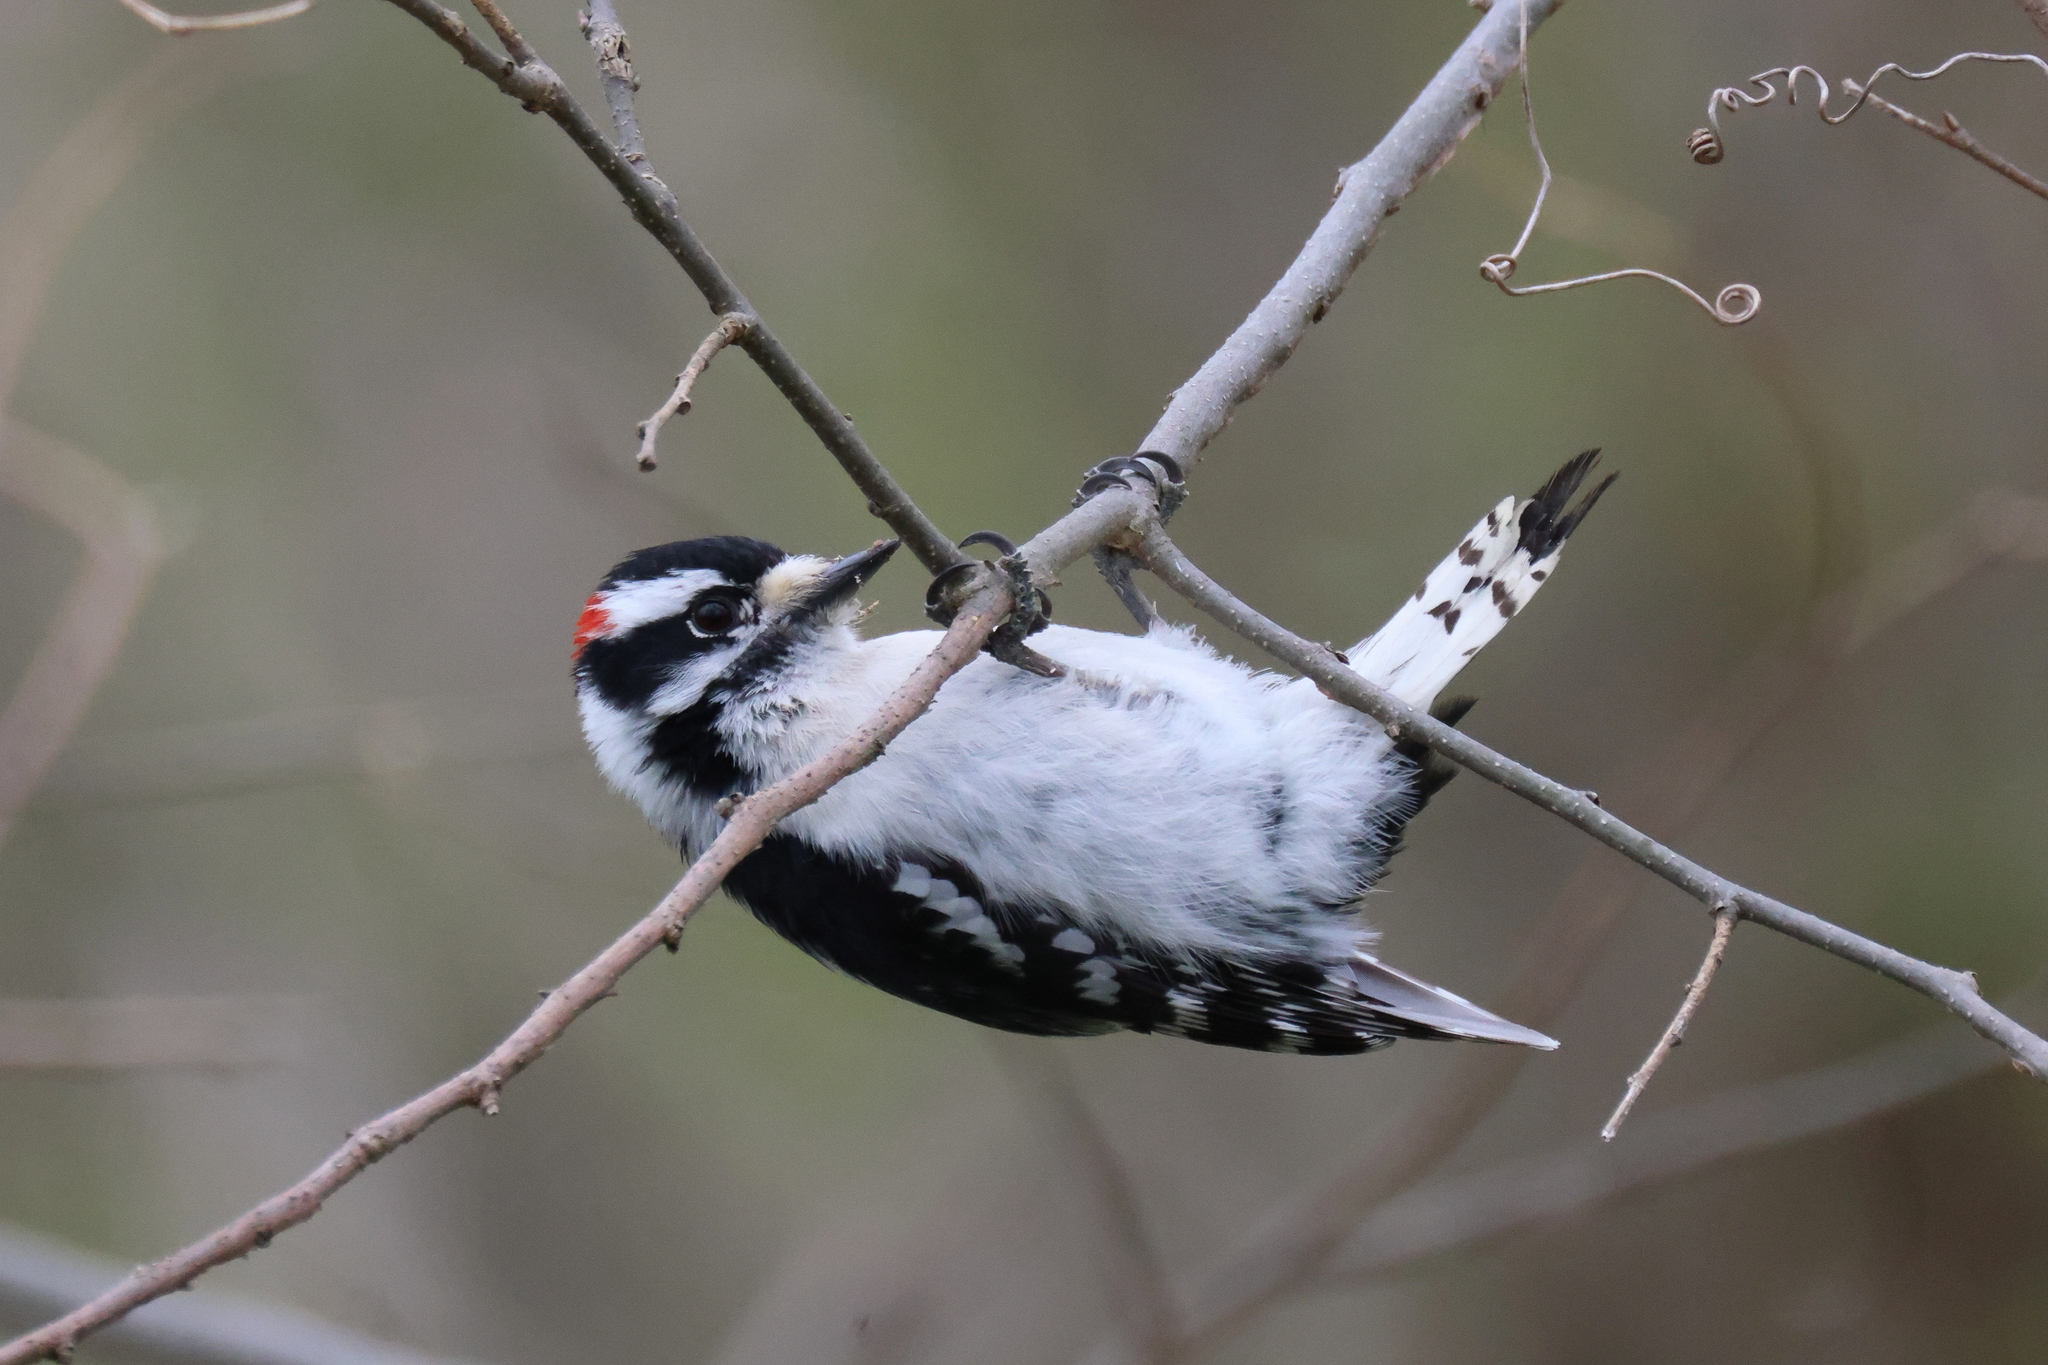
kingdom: Animalia
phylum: Chordata
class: Aves
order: Piciformes
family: Picidae
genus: Dryobates
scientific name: Dryobates pubescens
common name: Downy woodpecker
